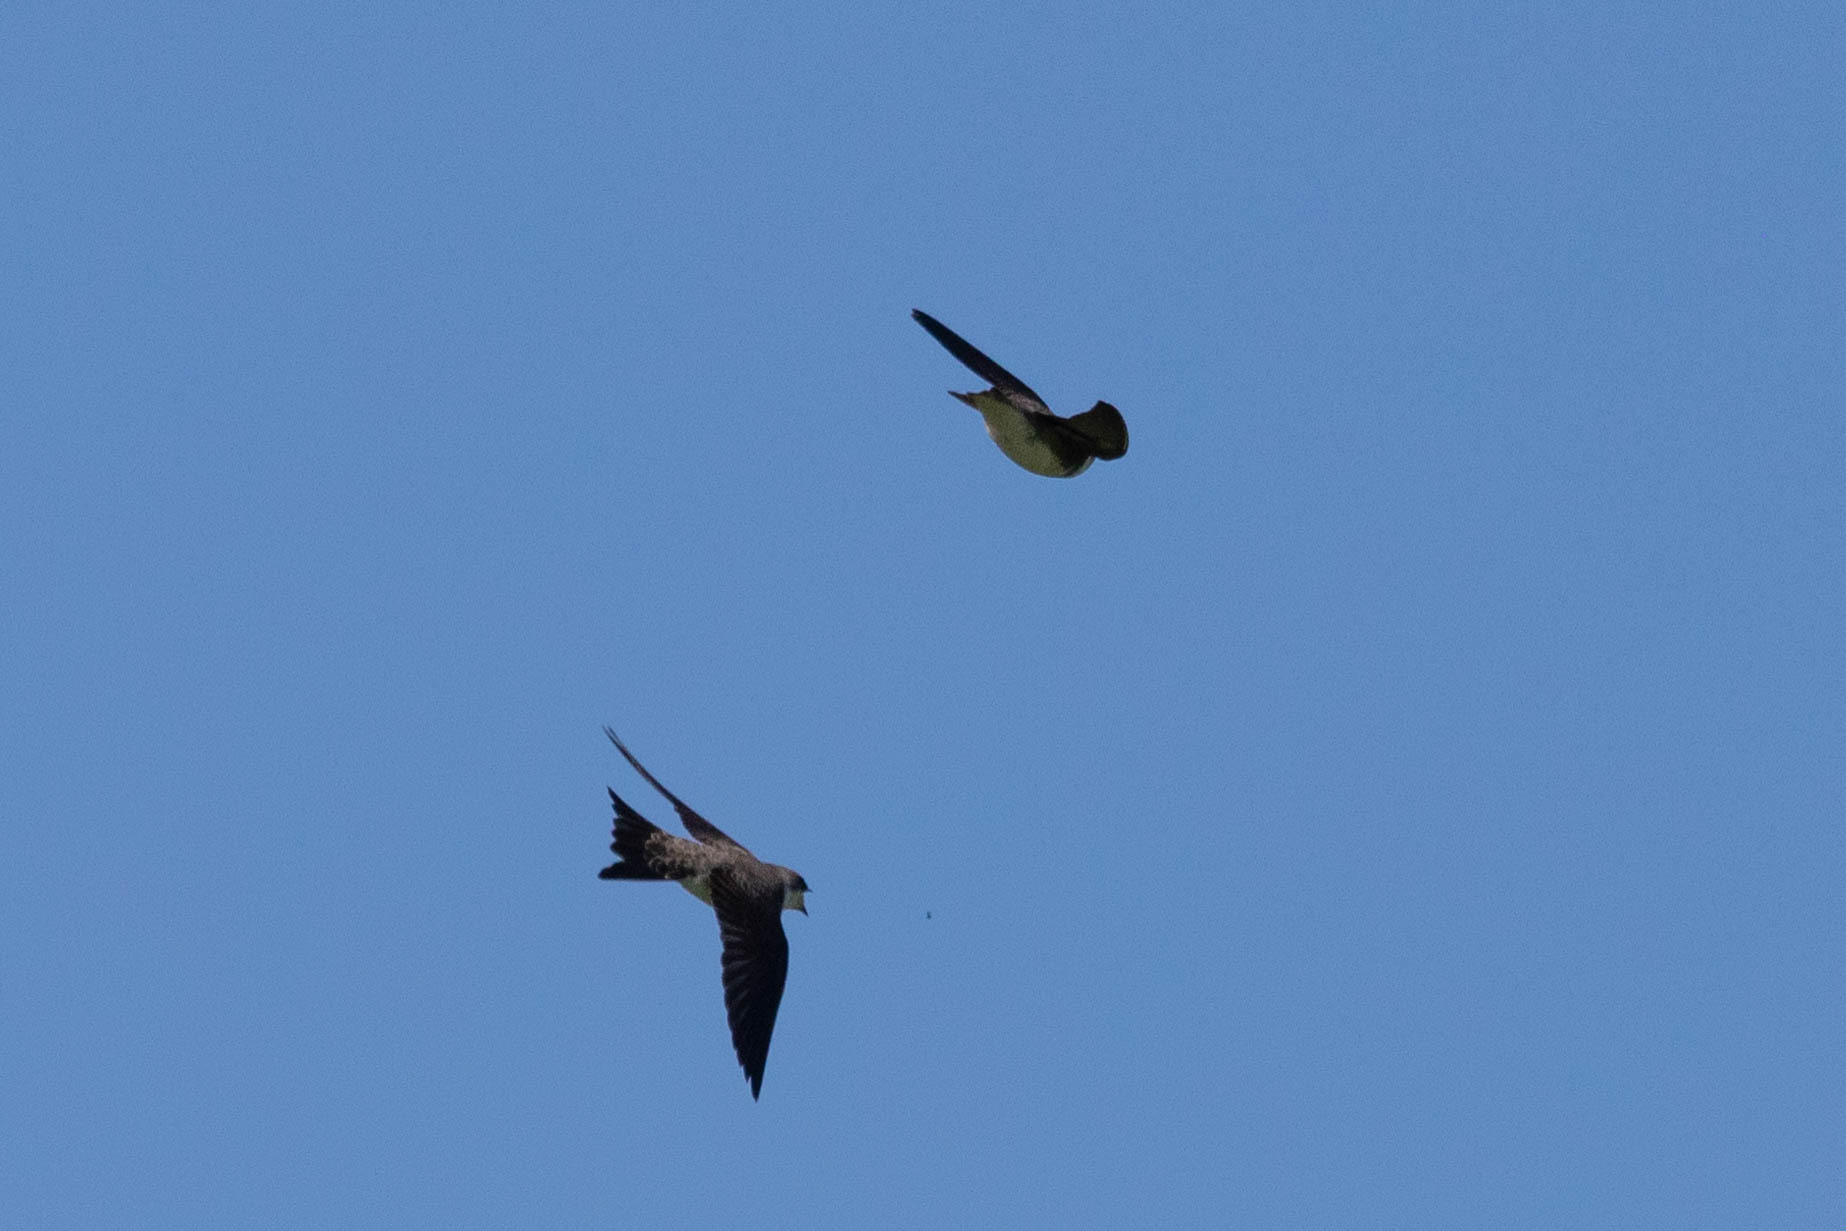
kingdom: Animalia
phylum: Chordata
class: Aves
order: Passeriformes
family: Hirundinidae
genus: Tachycineta
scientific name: Tachycineta bicolor
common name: Tree swallow
